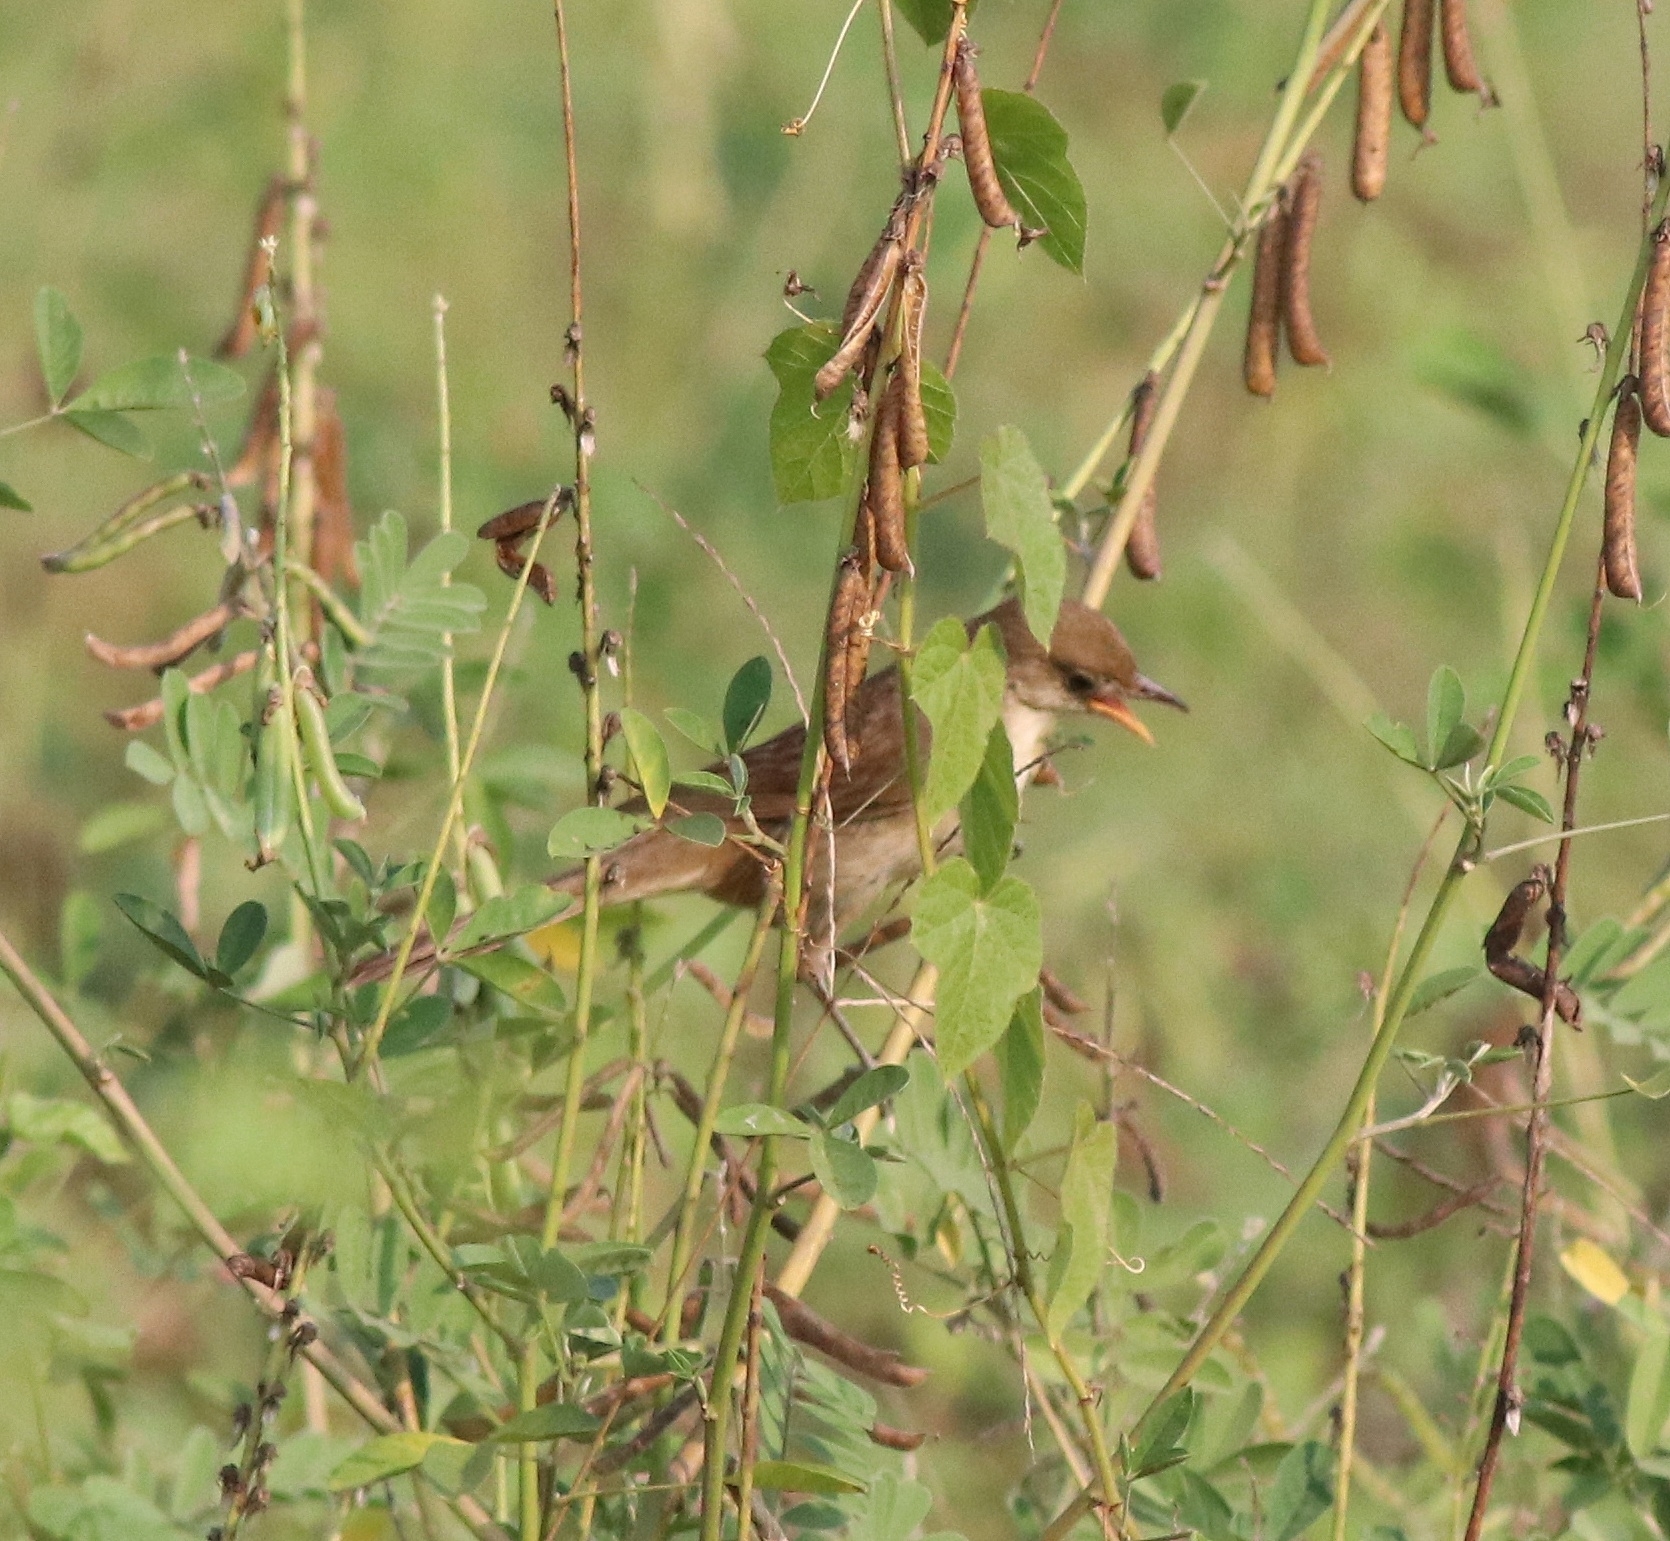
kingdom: Animalia
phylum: Chordata
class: Aves
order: Passeriformes
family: Acrocephalidae
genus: Iduna
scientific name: Iduna aedon
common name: Thick-billed warbler
